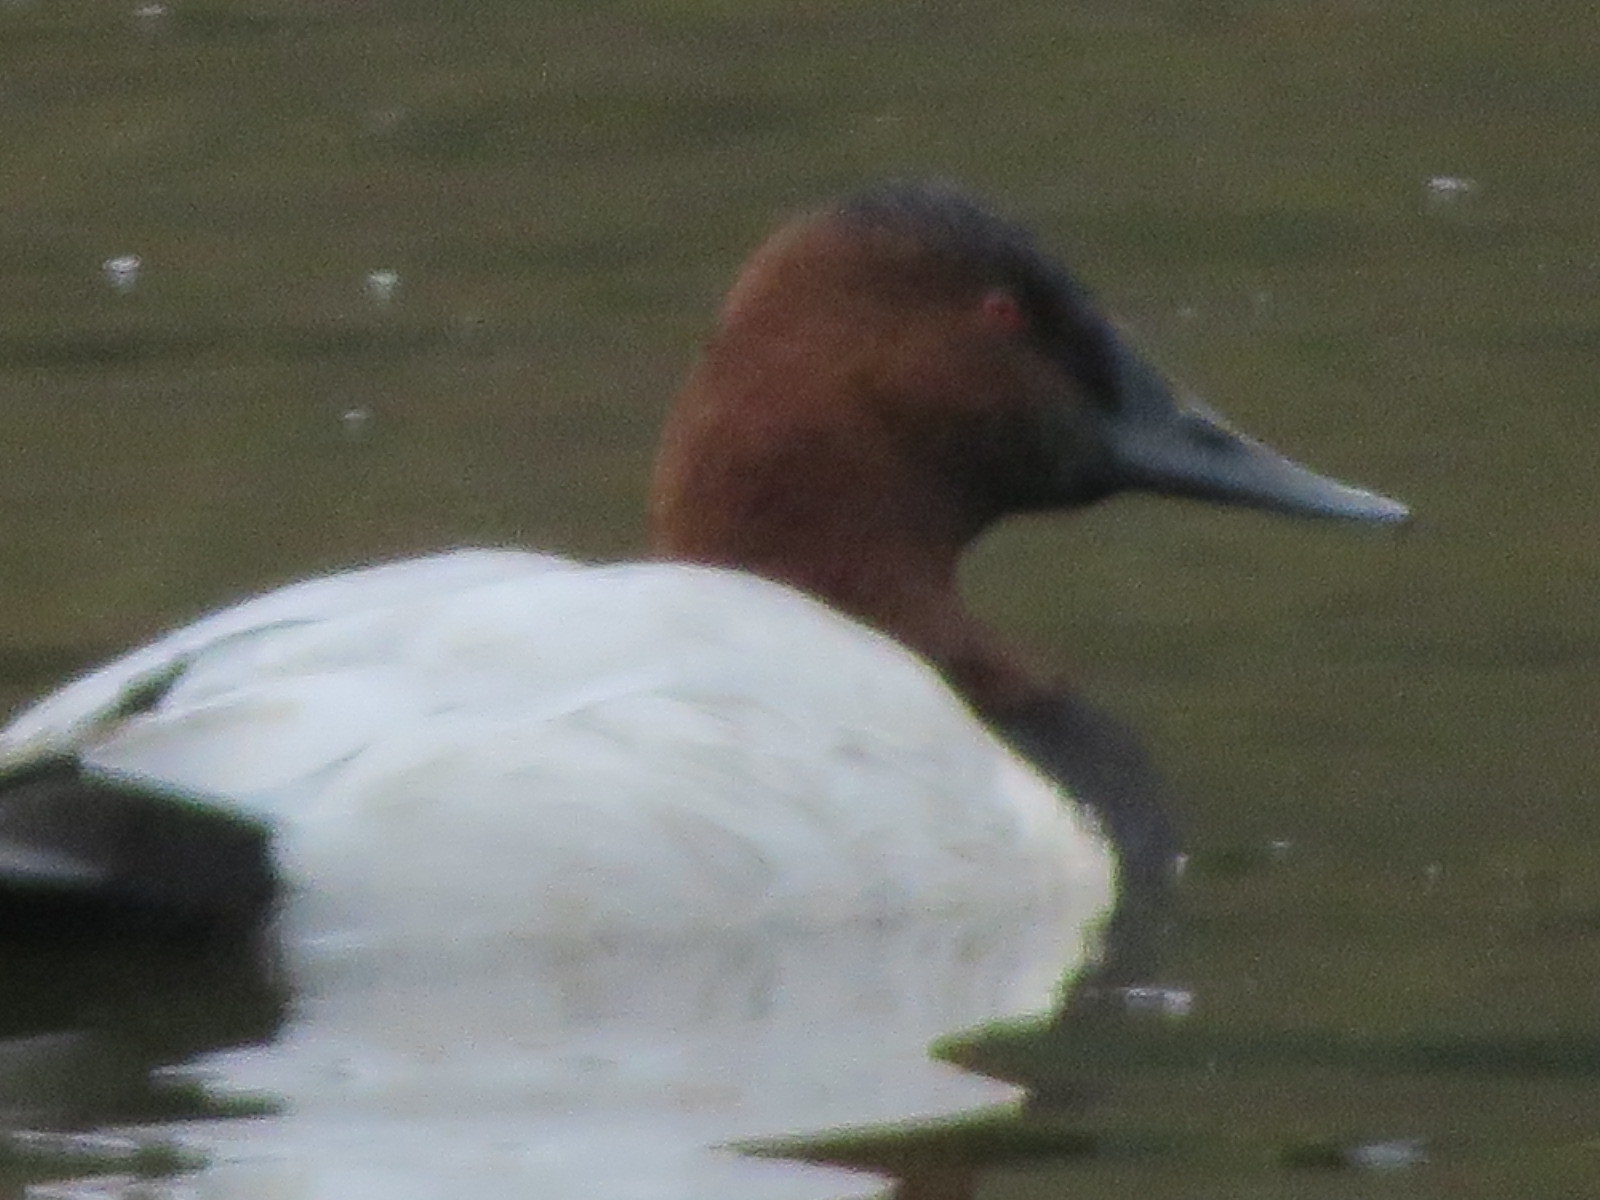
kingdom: Animalia
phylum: Chordata
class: Aves
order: Anseriformes
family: Anatidae
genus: Aythya
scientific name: Aythya valisineria
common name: Canvasback
